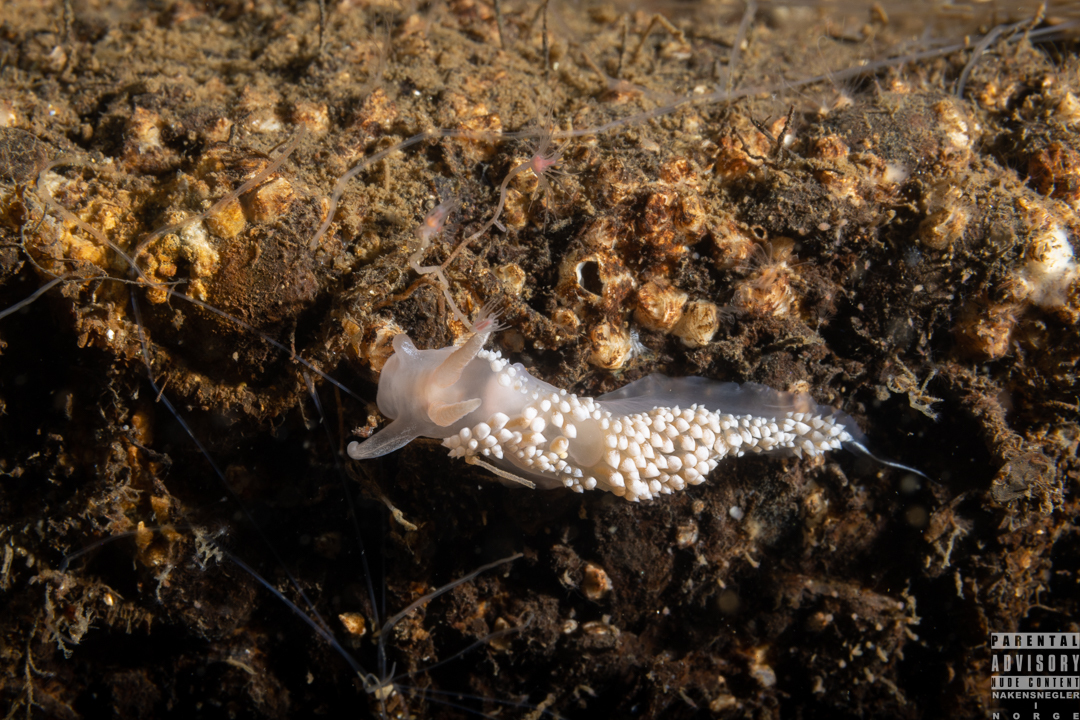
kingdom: Animalia
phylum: Mollusca
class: Gastropoda
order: Nudibranchia
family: Coryphellidae
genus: Coryphella
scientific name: Coryphella verrucosa
